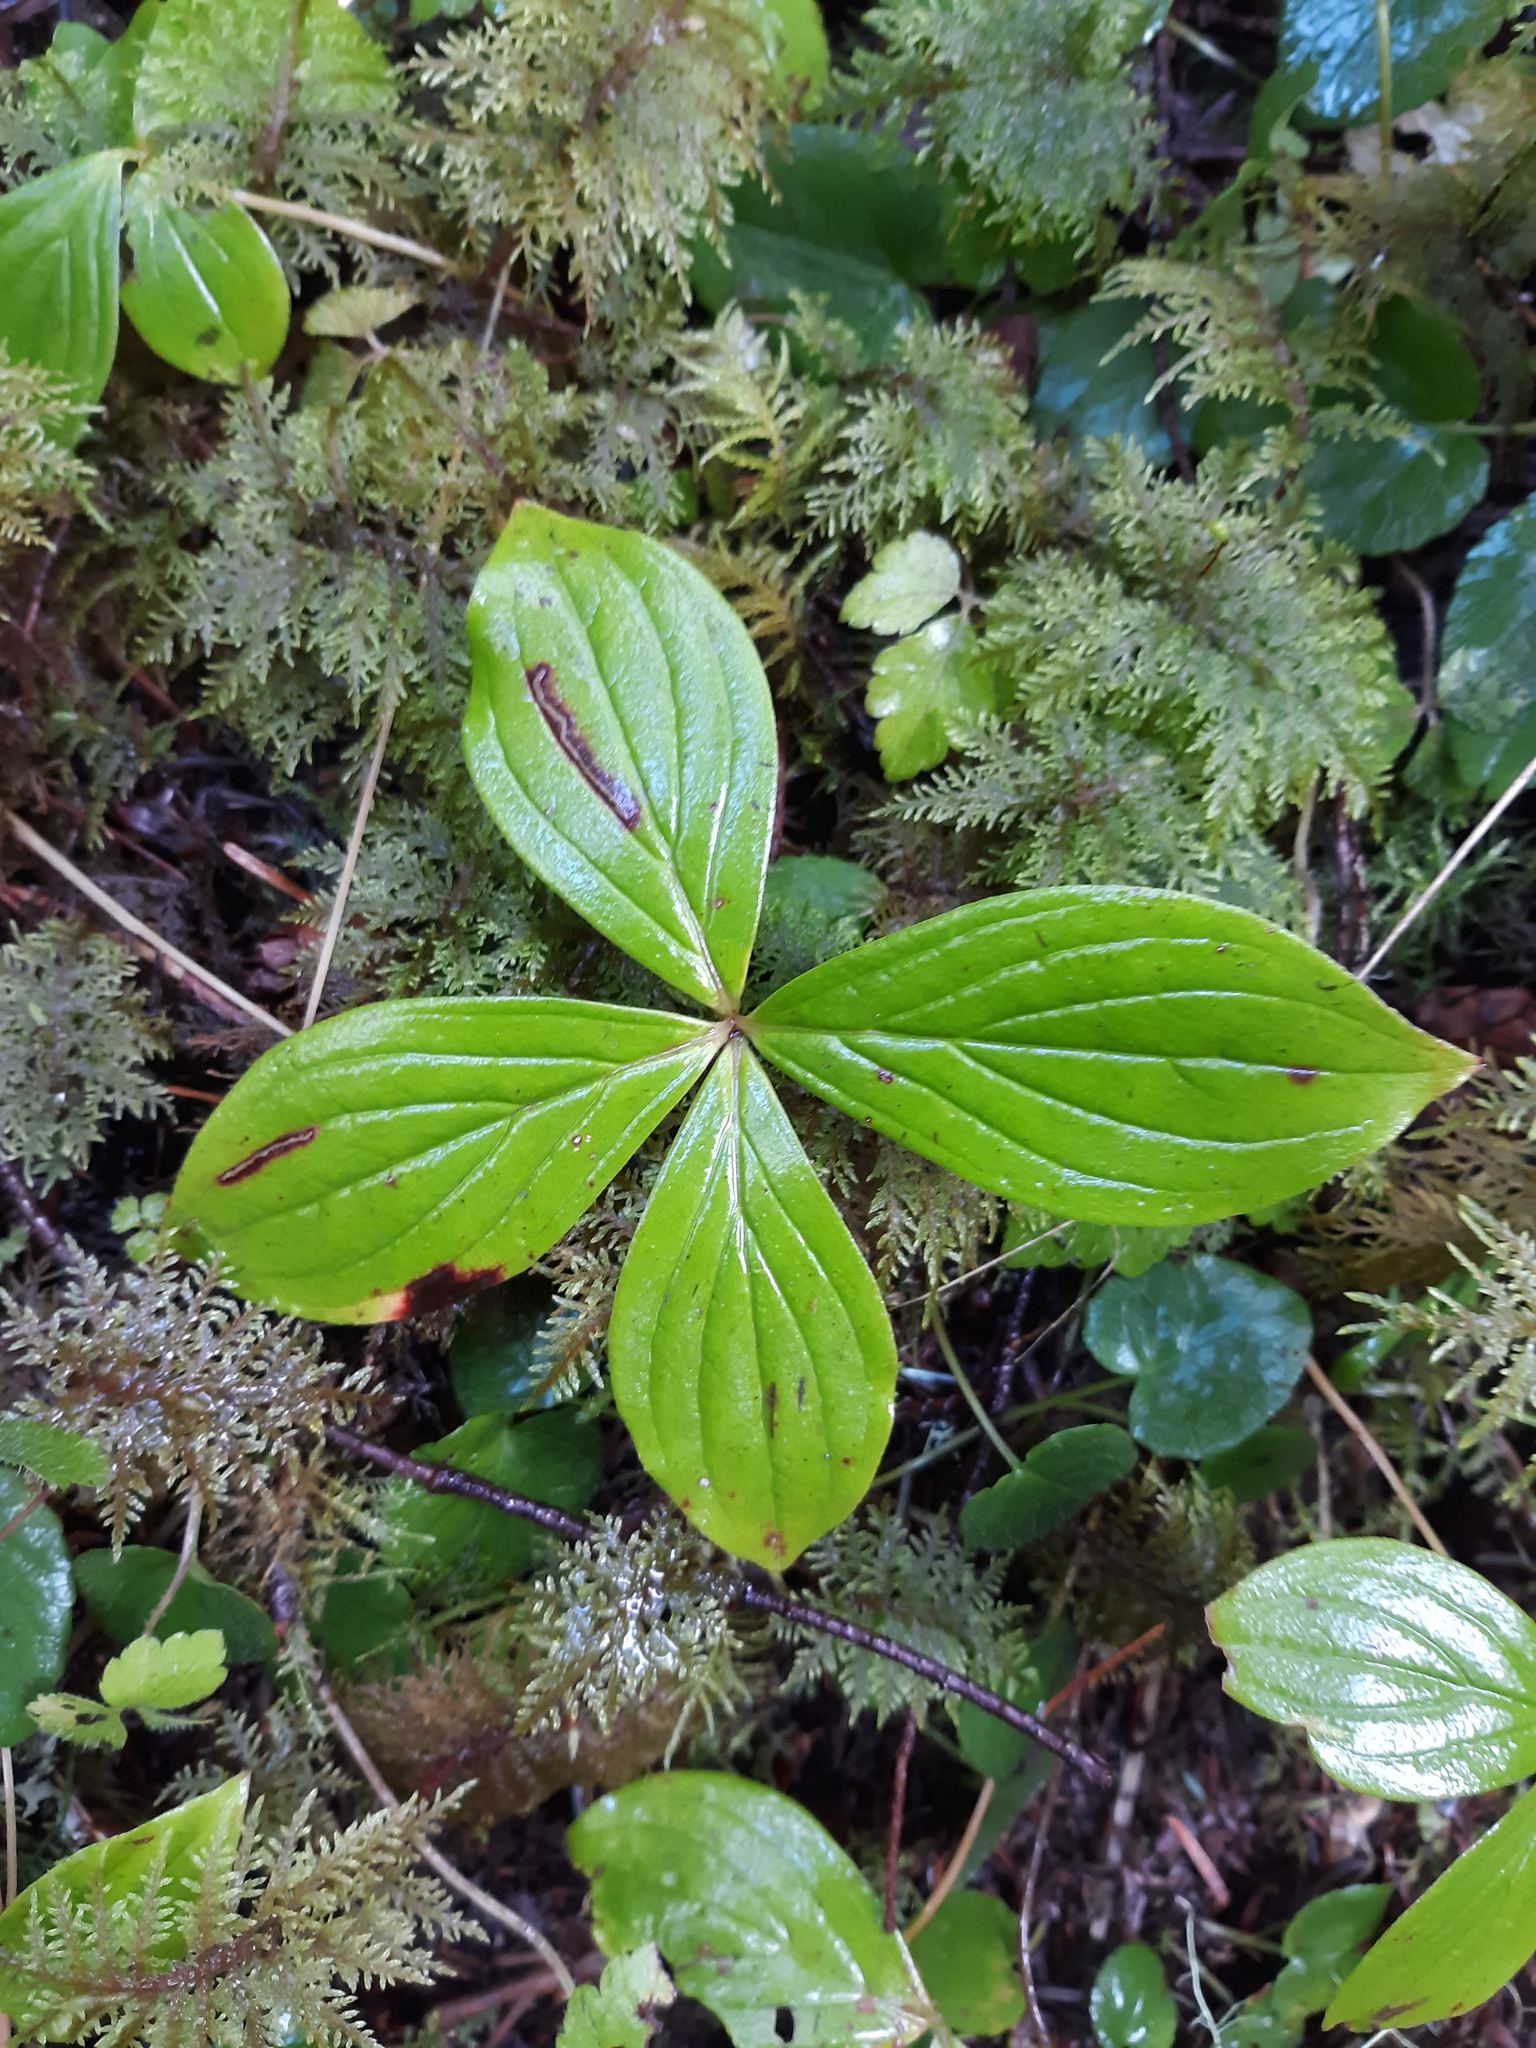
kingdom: Plantae
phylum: Tracheophyta
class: Magnoliopsida
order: Cornales
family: Cornaceae
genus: Cornus
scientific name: Cornus unalaschkensis
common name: Alaska bunchberry
